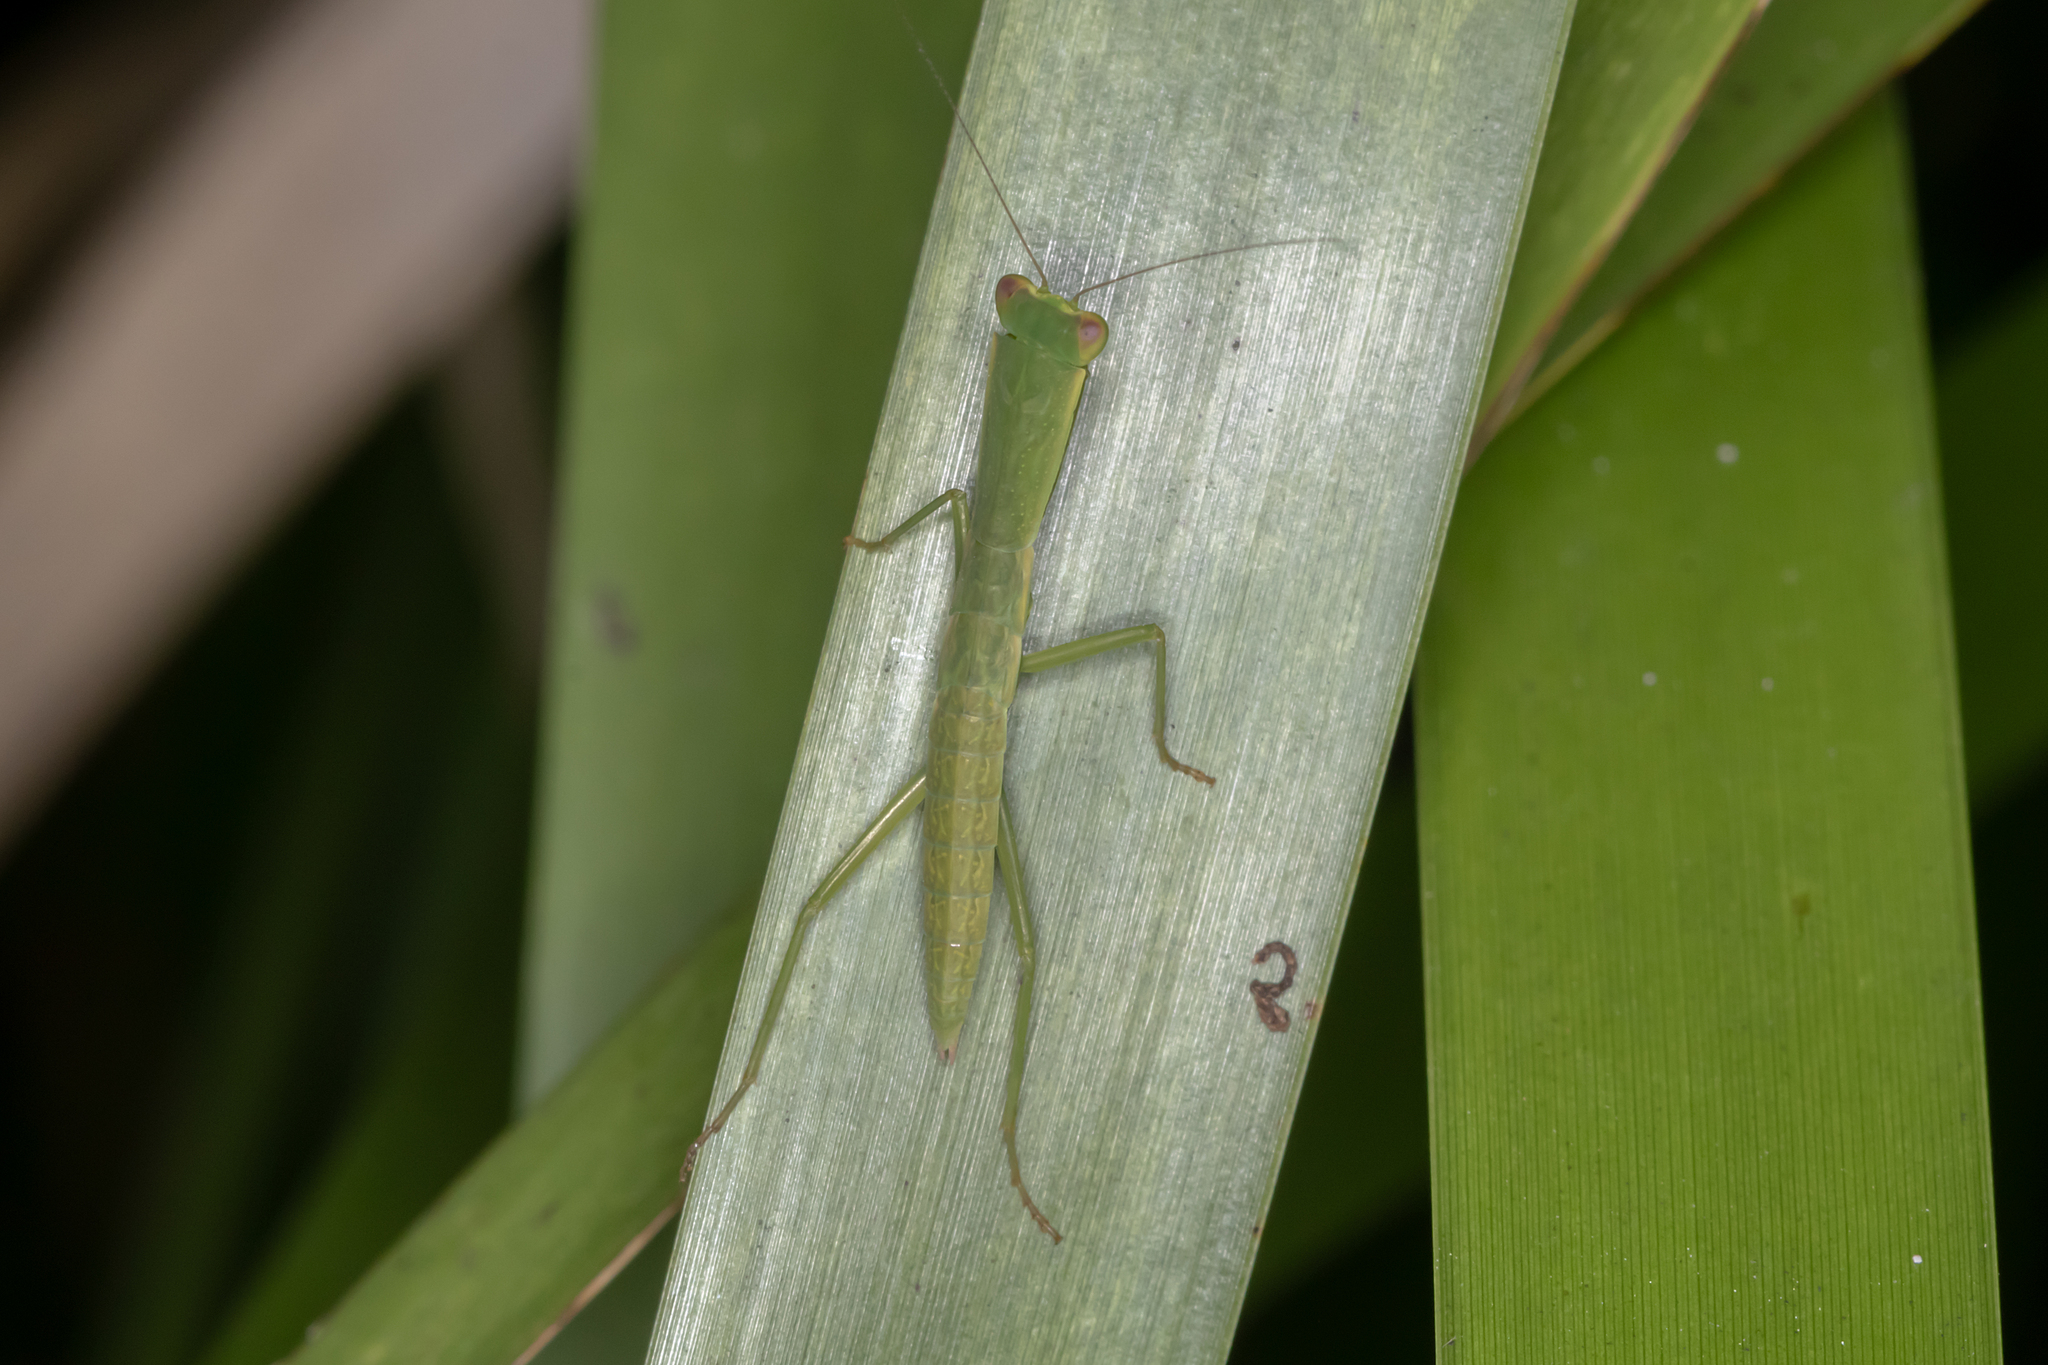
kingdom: Animalia
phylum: Arthropoda
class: Insecta
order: Mantodea
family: Mantidae
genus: Orthodera
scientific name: Orthodera ministralis
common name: Mantis
